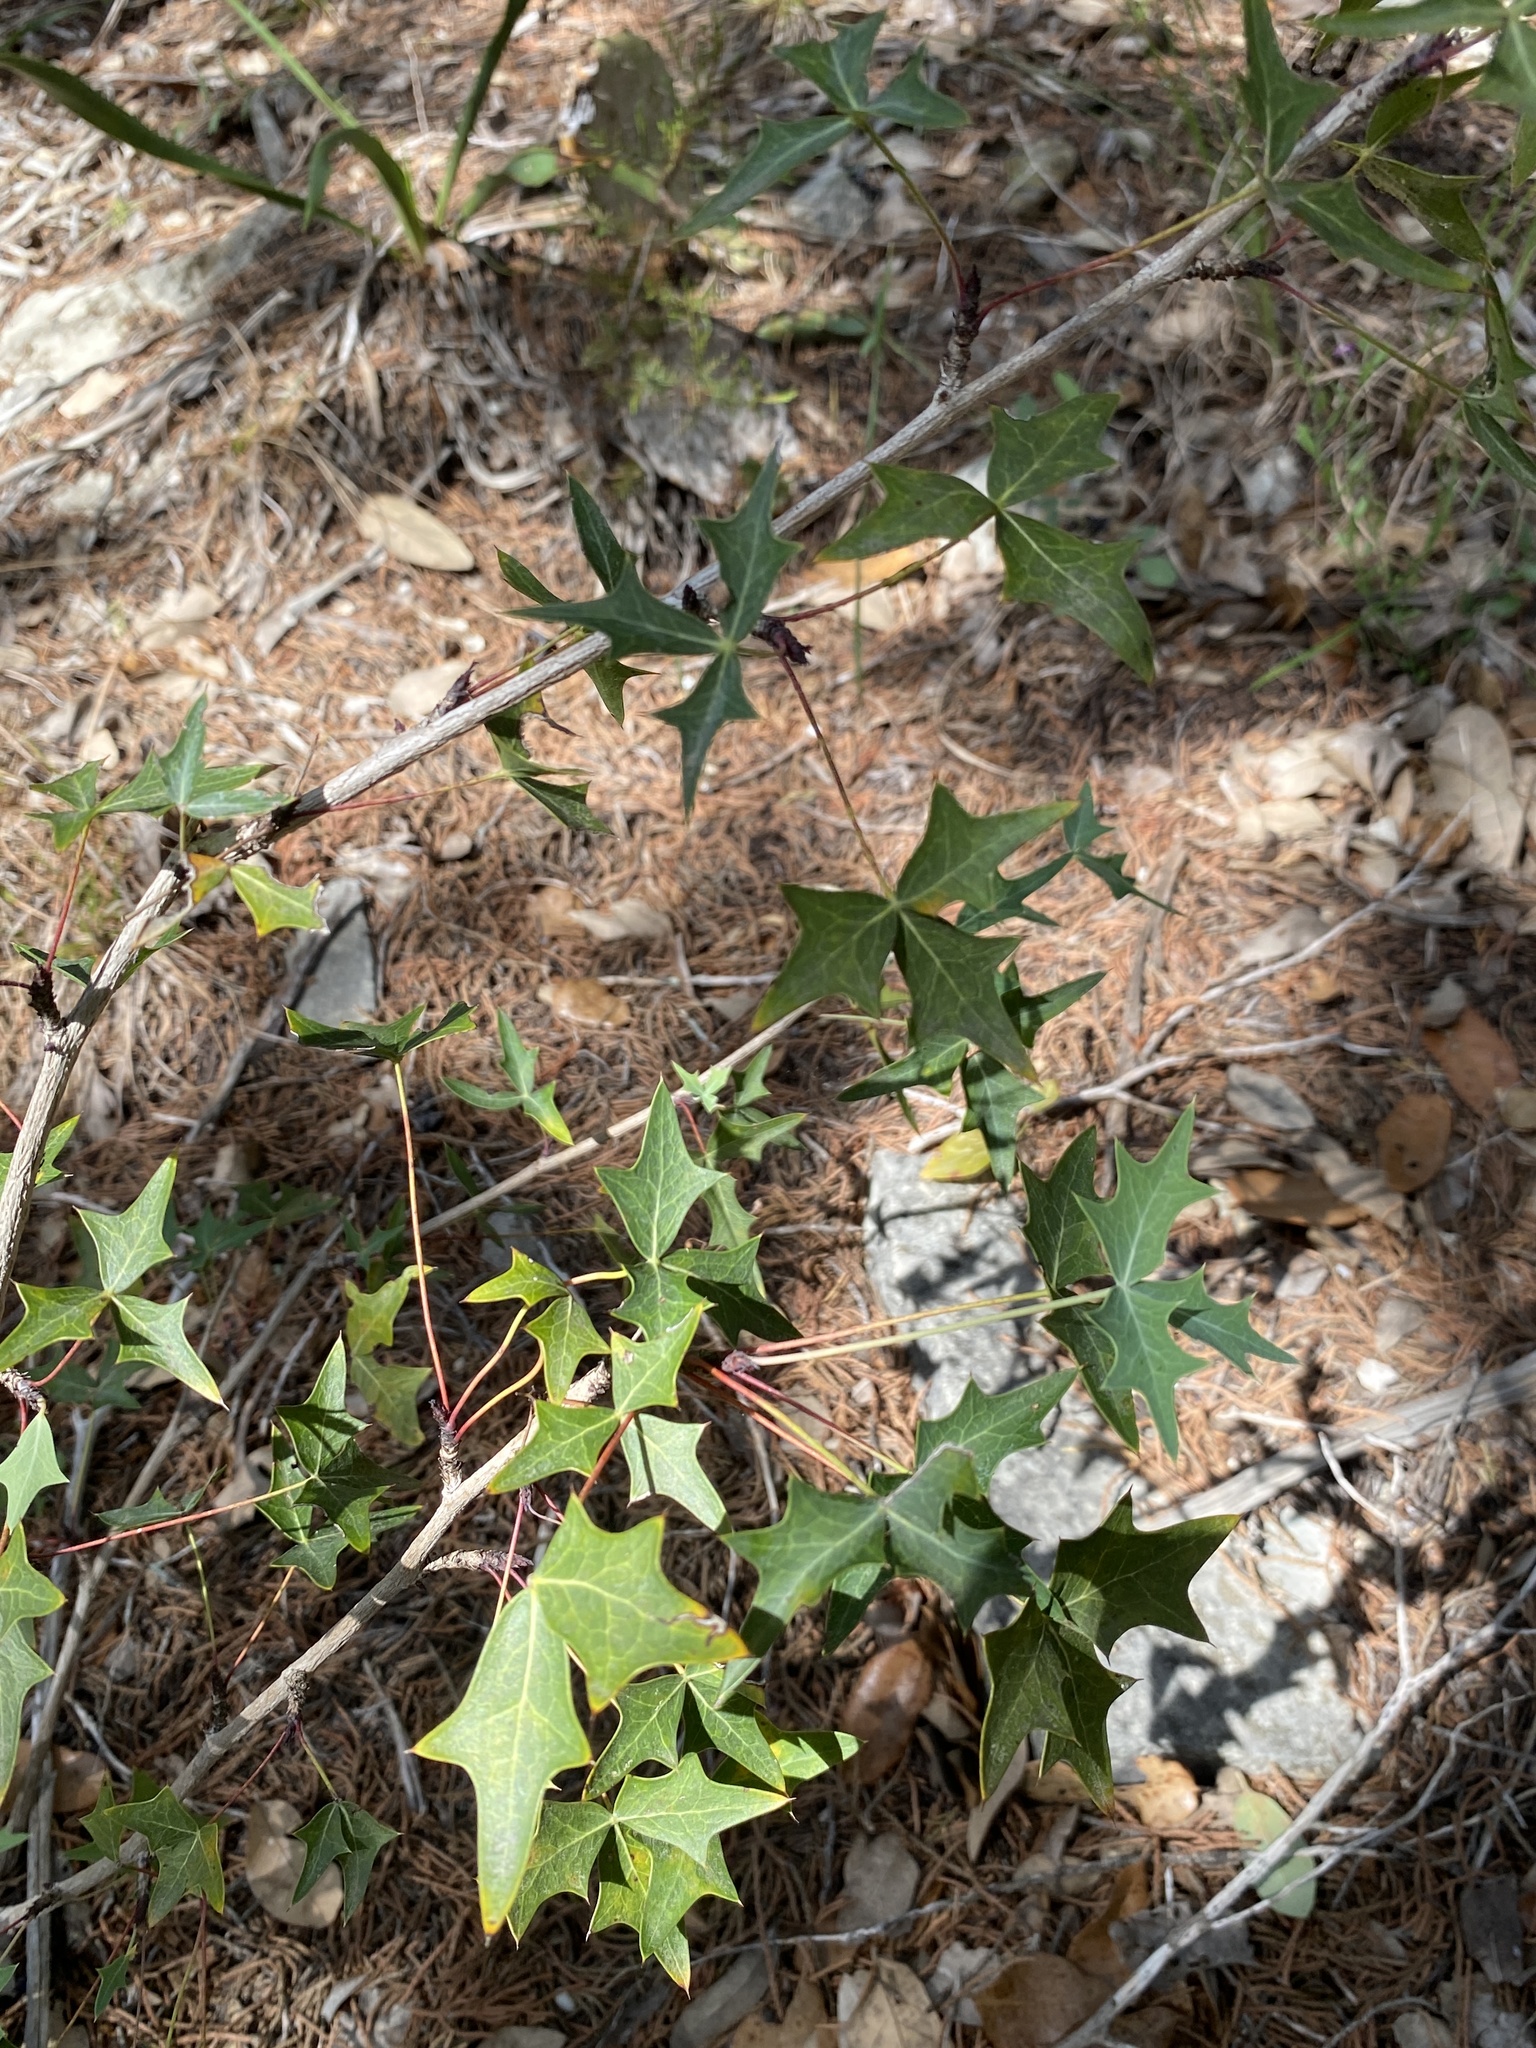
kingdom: Plantae
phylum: Tracheophyta
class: Magnoliopsida
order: Ranunculales
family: Berberidaceae
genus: Alloberberis
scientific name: Alloberberis trifoliolata
